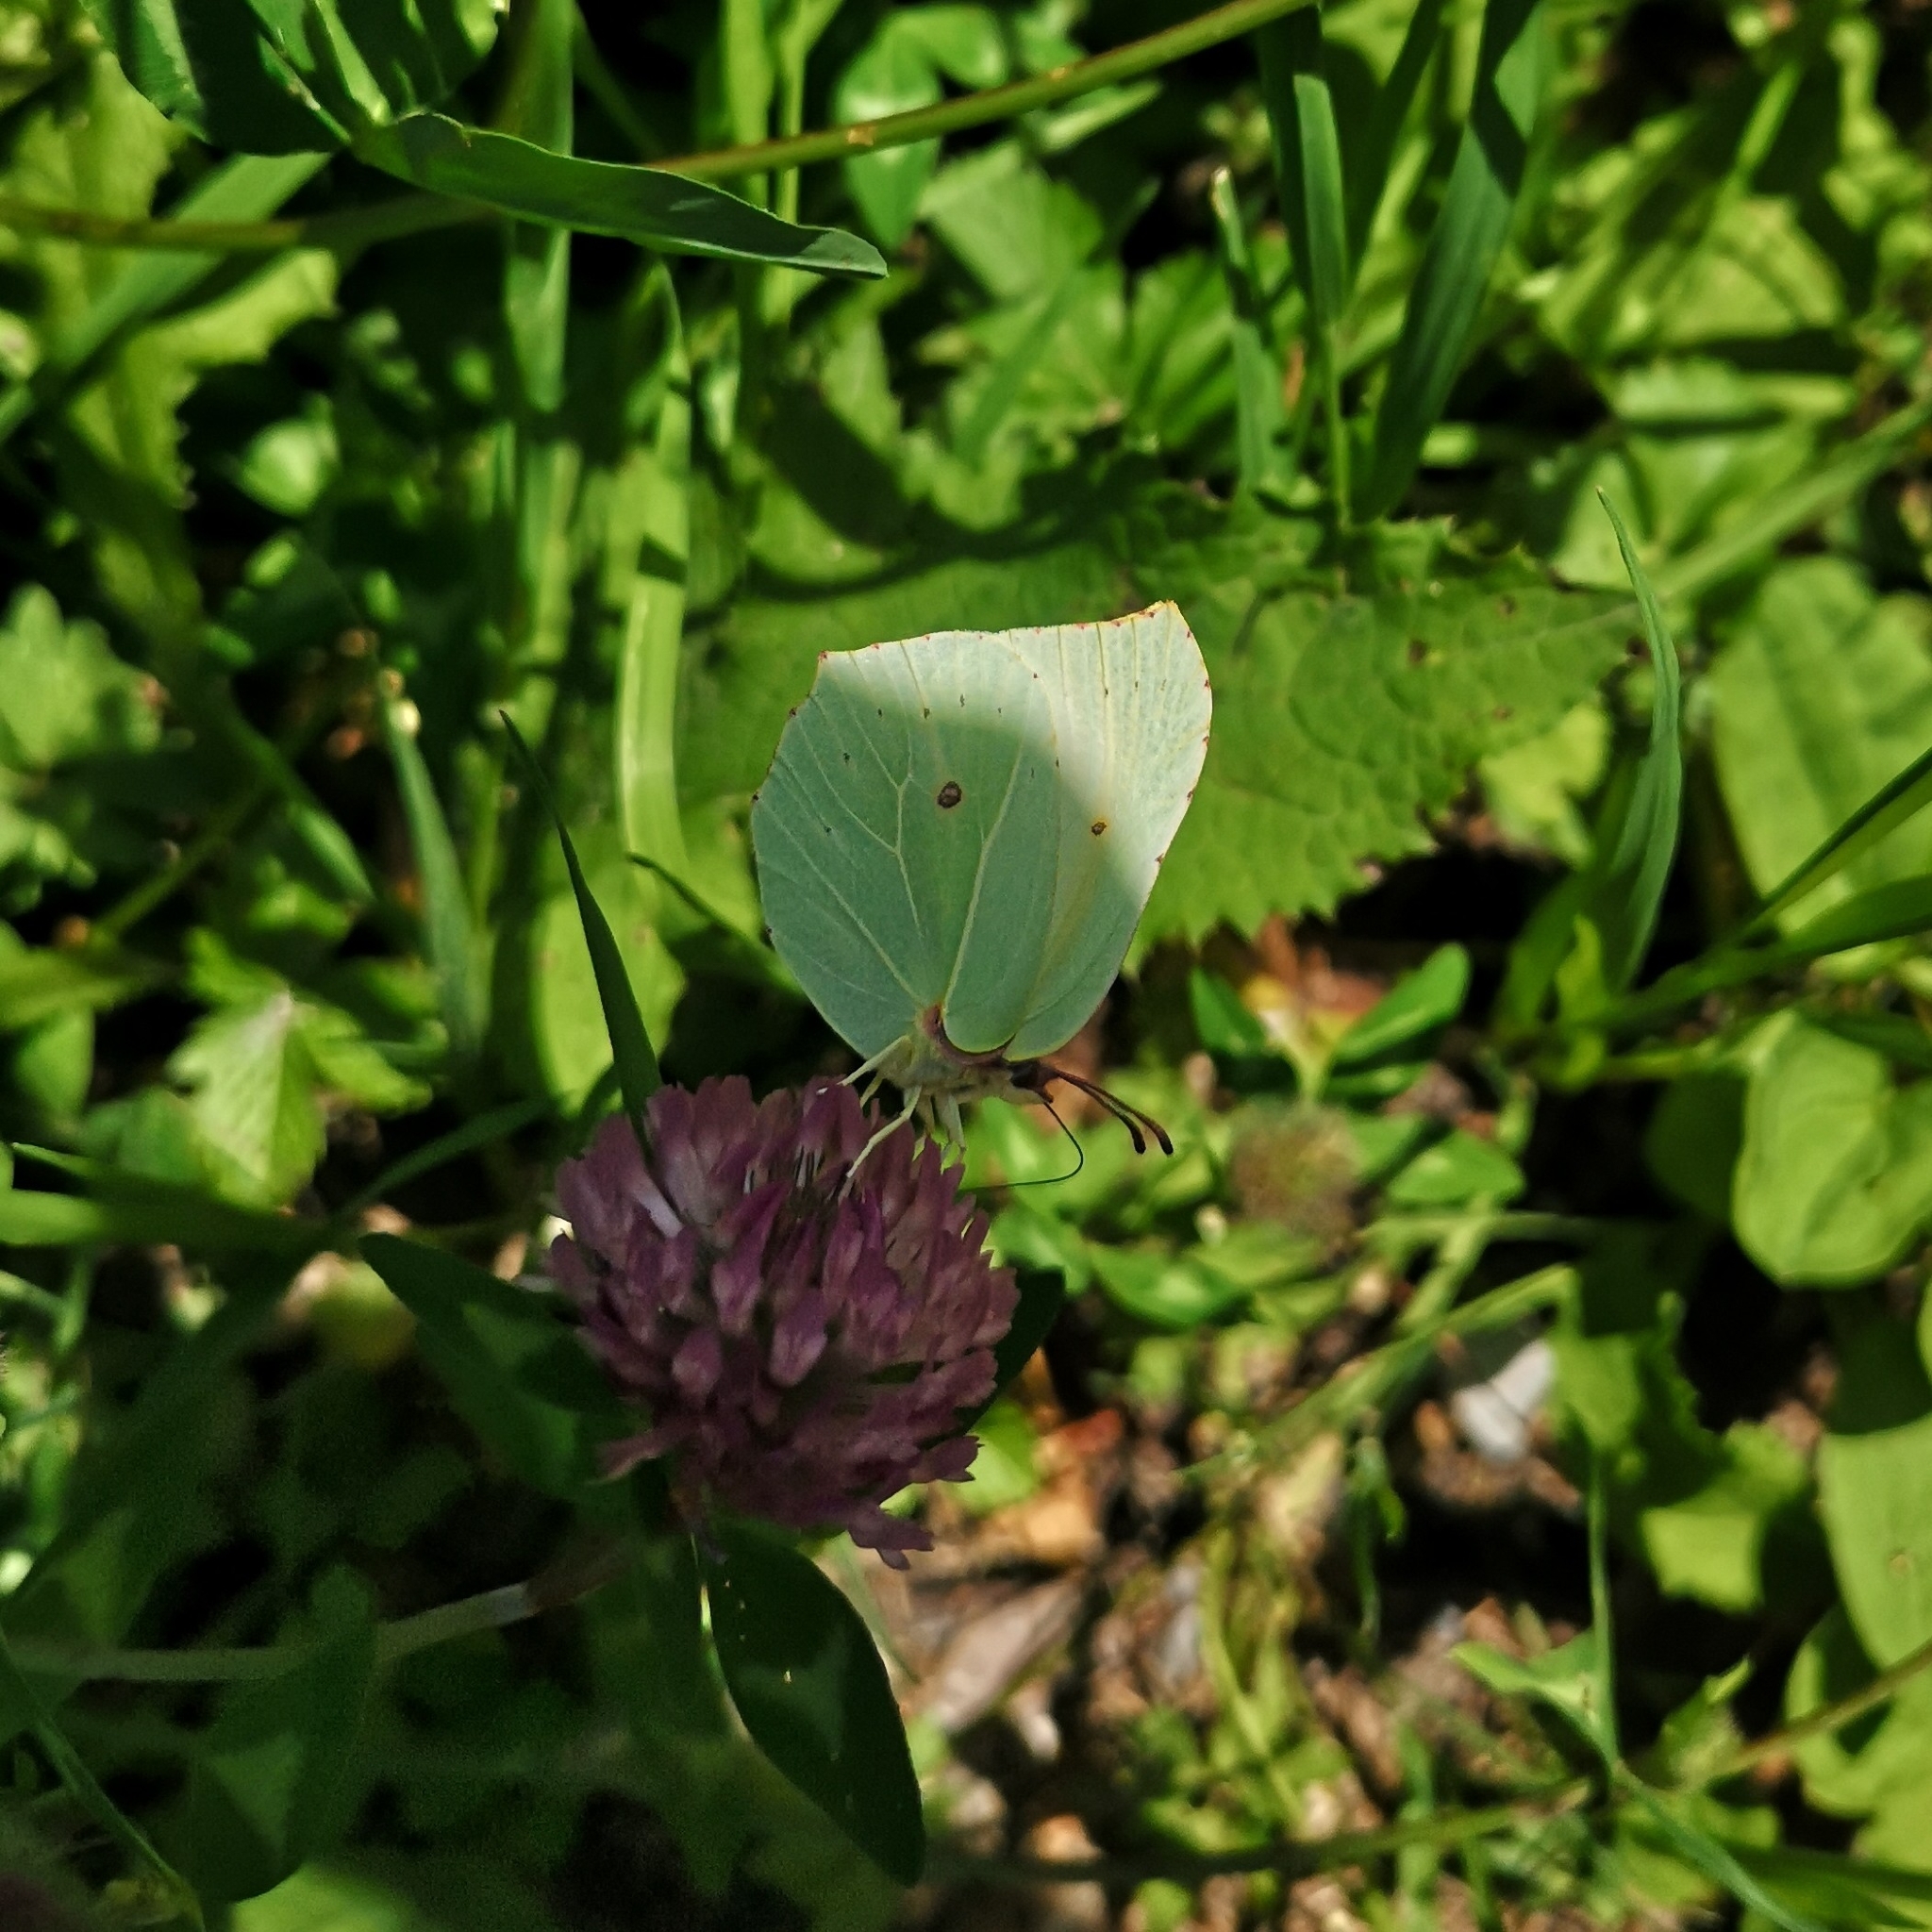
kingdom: Animalia
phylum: Arthropoda
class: Insecta
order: Lepidoptera
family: Pieridae
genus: Gonepteryx
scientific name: Gonepteryx rhamni
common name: Brimstone
